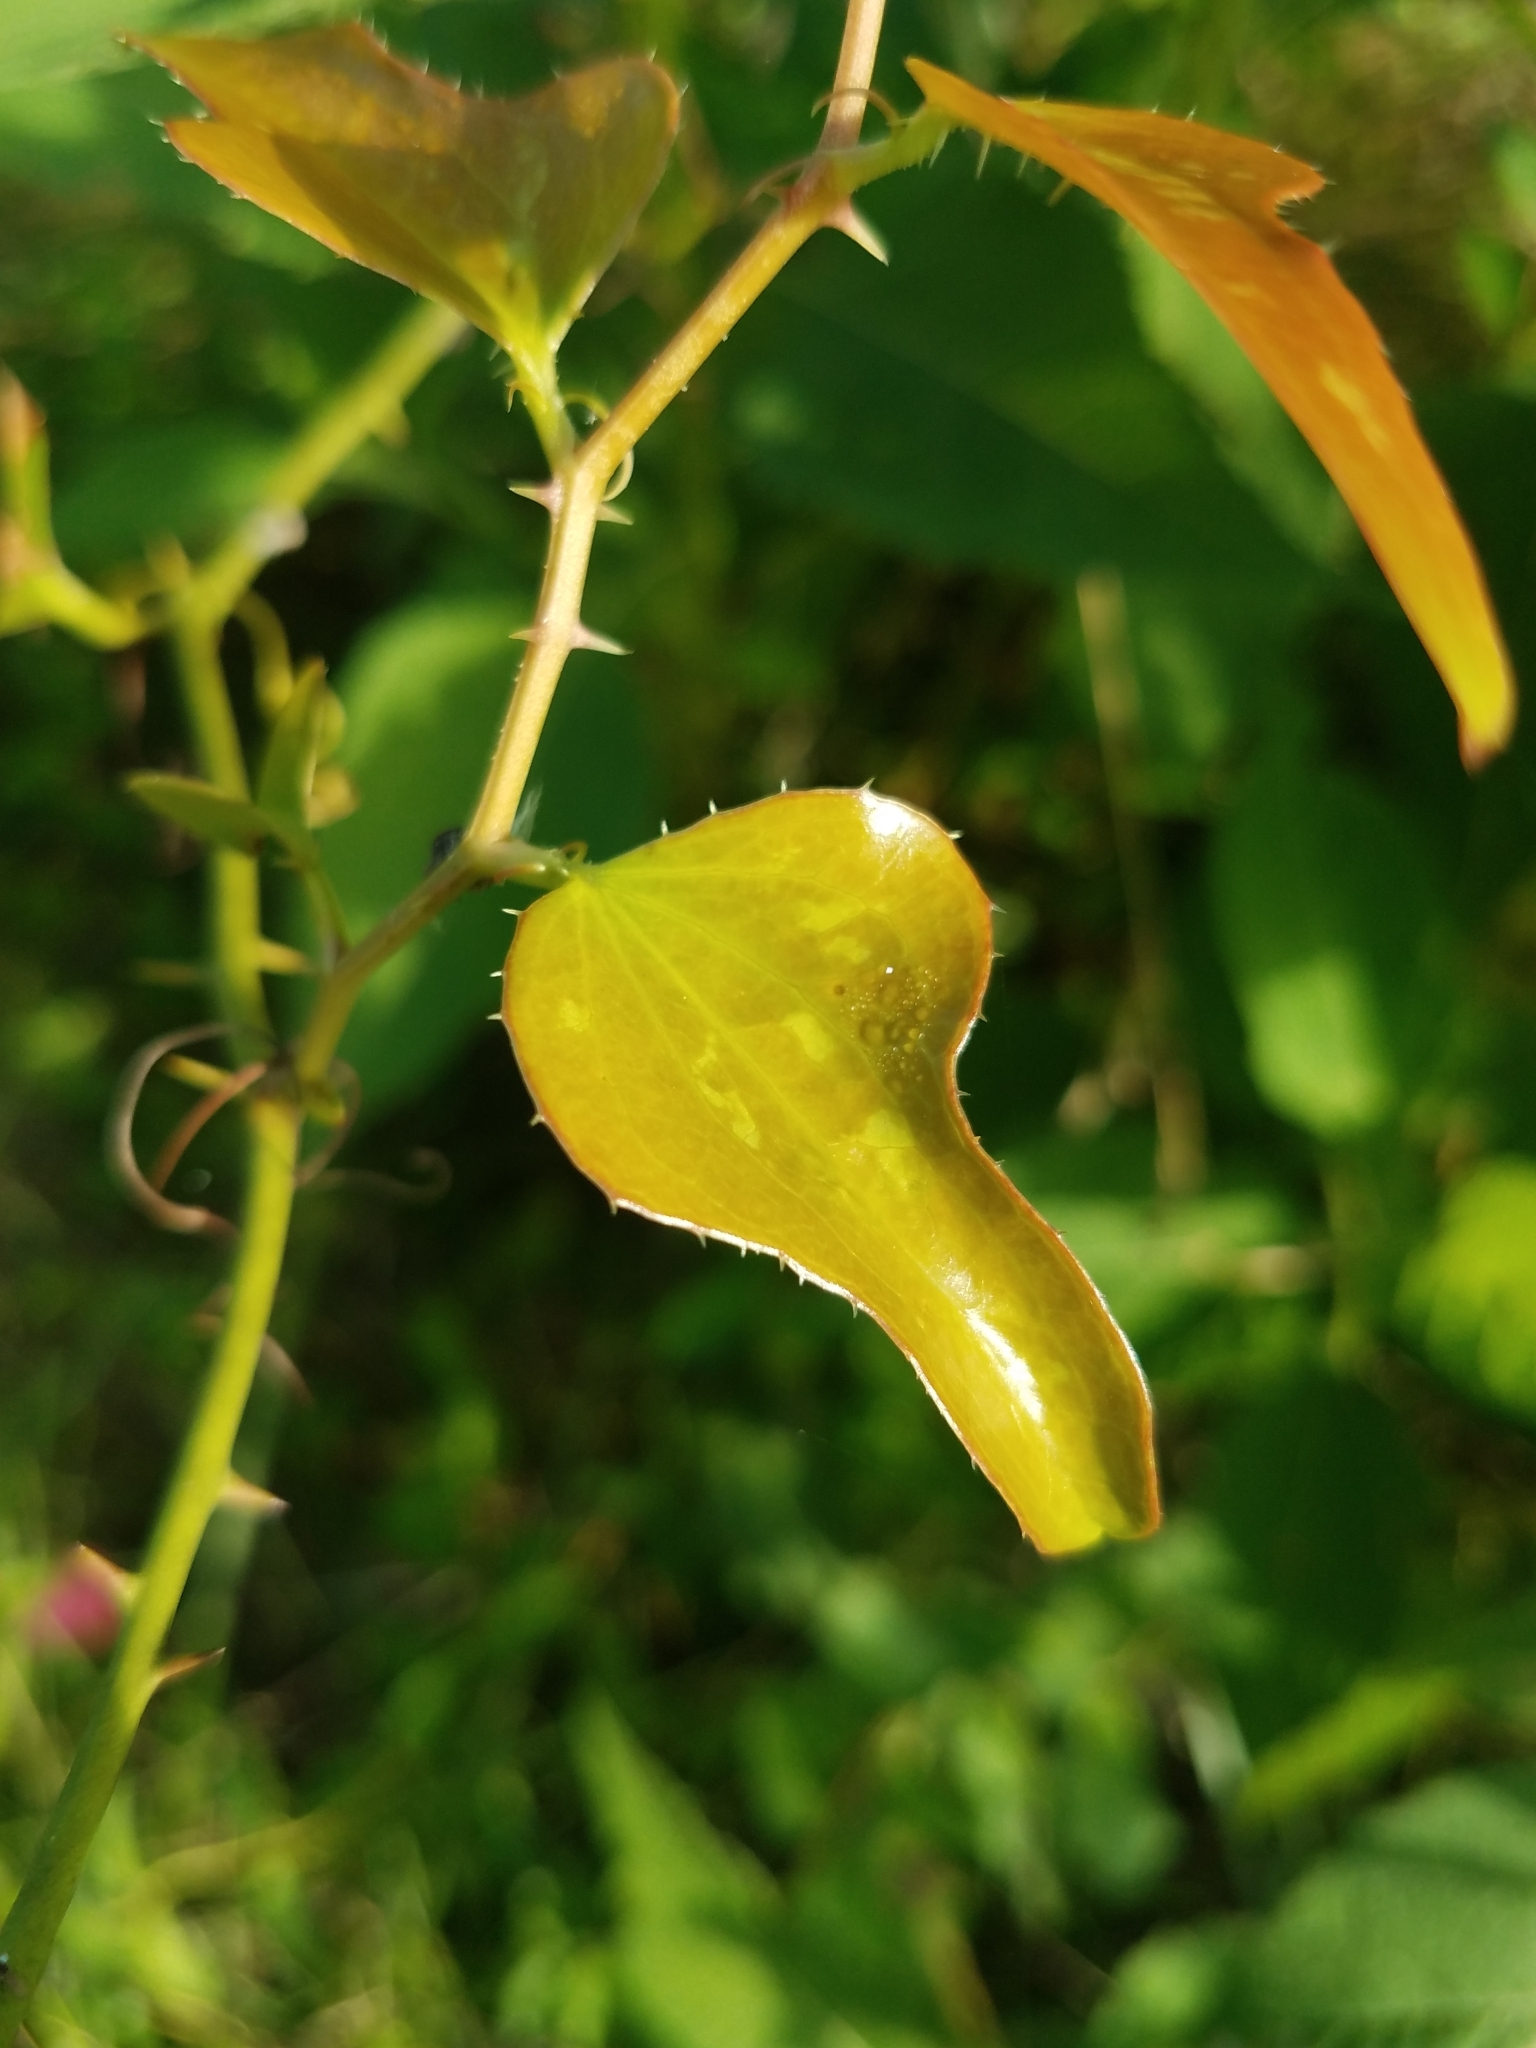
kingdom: Plantae
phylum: Tracheophyta
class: Liliopsida
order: Liliales
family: Smilacaceae
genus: Smilax
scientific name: Smilax bona-nox
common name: Catbrier
